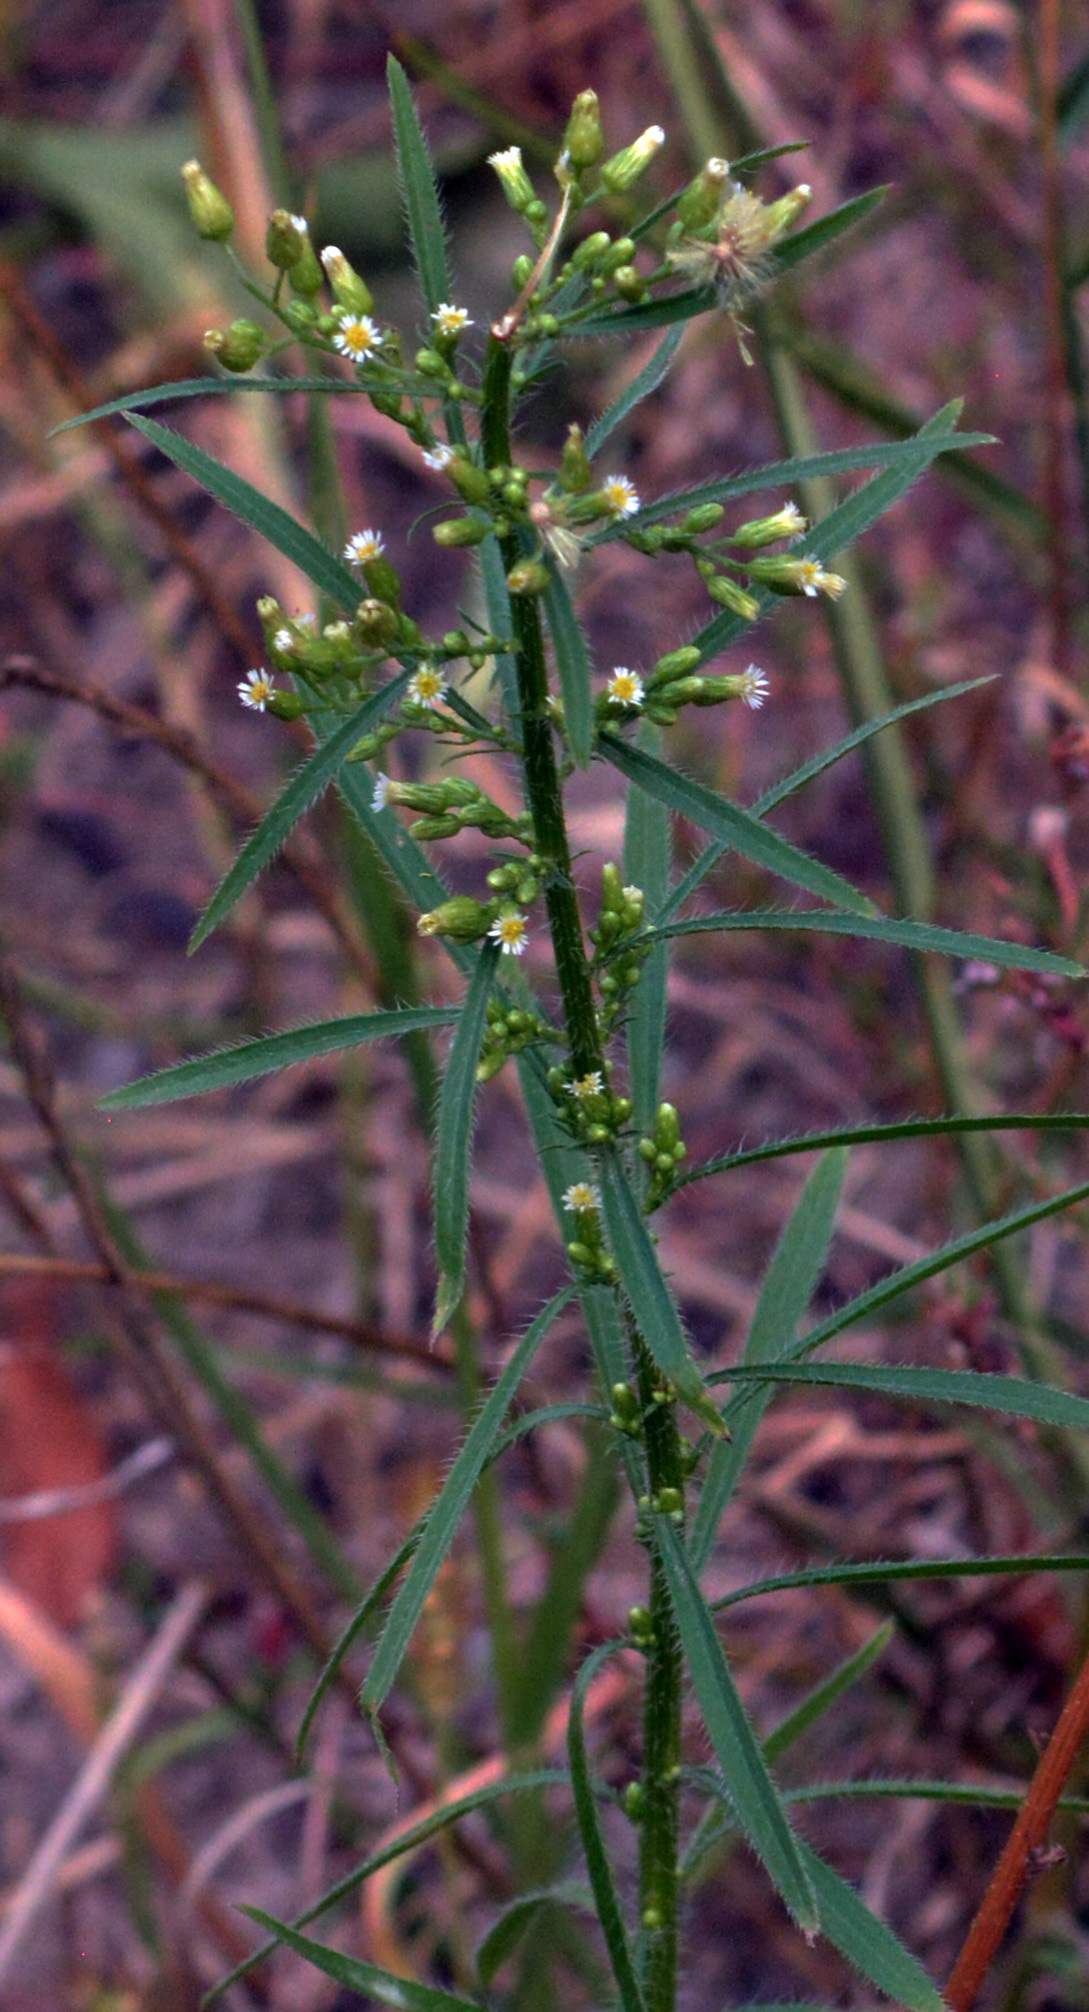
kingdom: Plantae
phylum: Tracheophyta
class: Magnoliopsida
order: Asterales
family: Asteraceae
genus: Erigeron
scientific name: Erigeron canadensis
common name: Canadian fleabane
